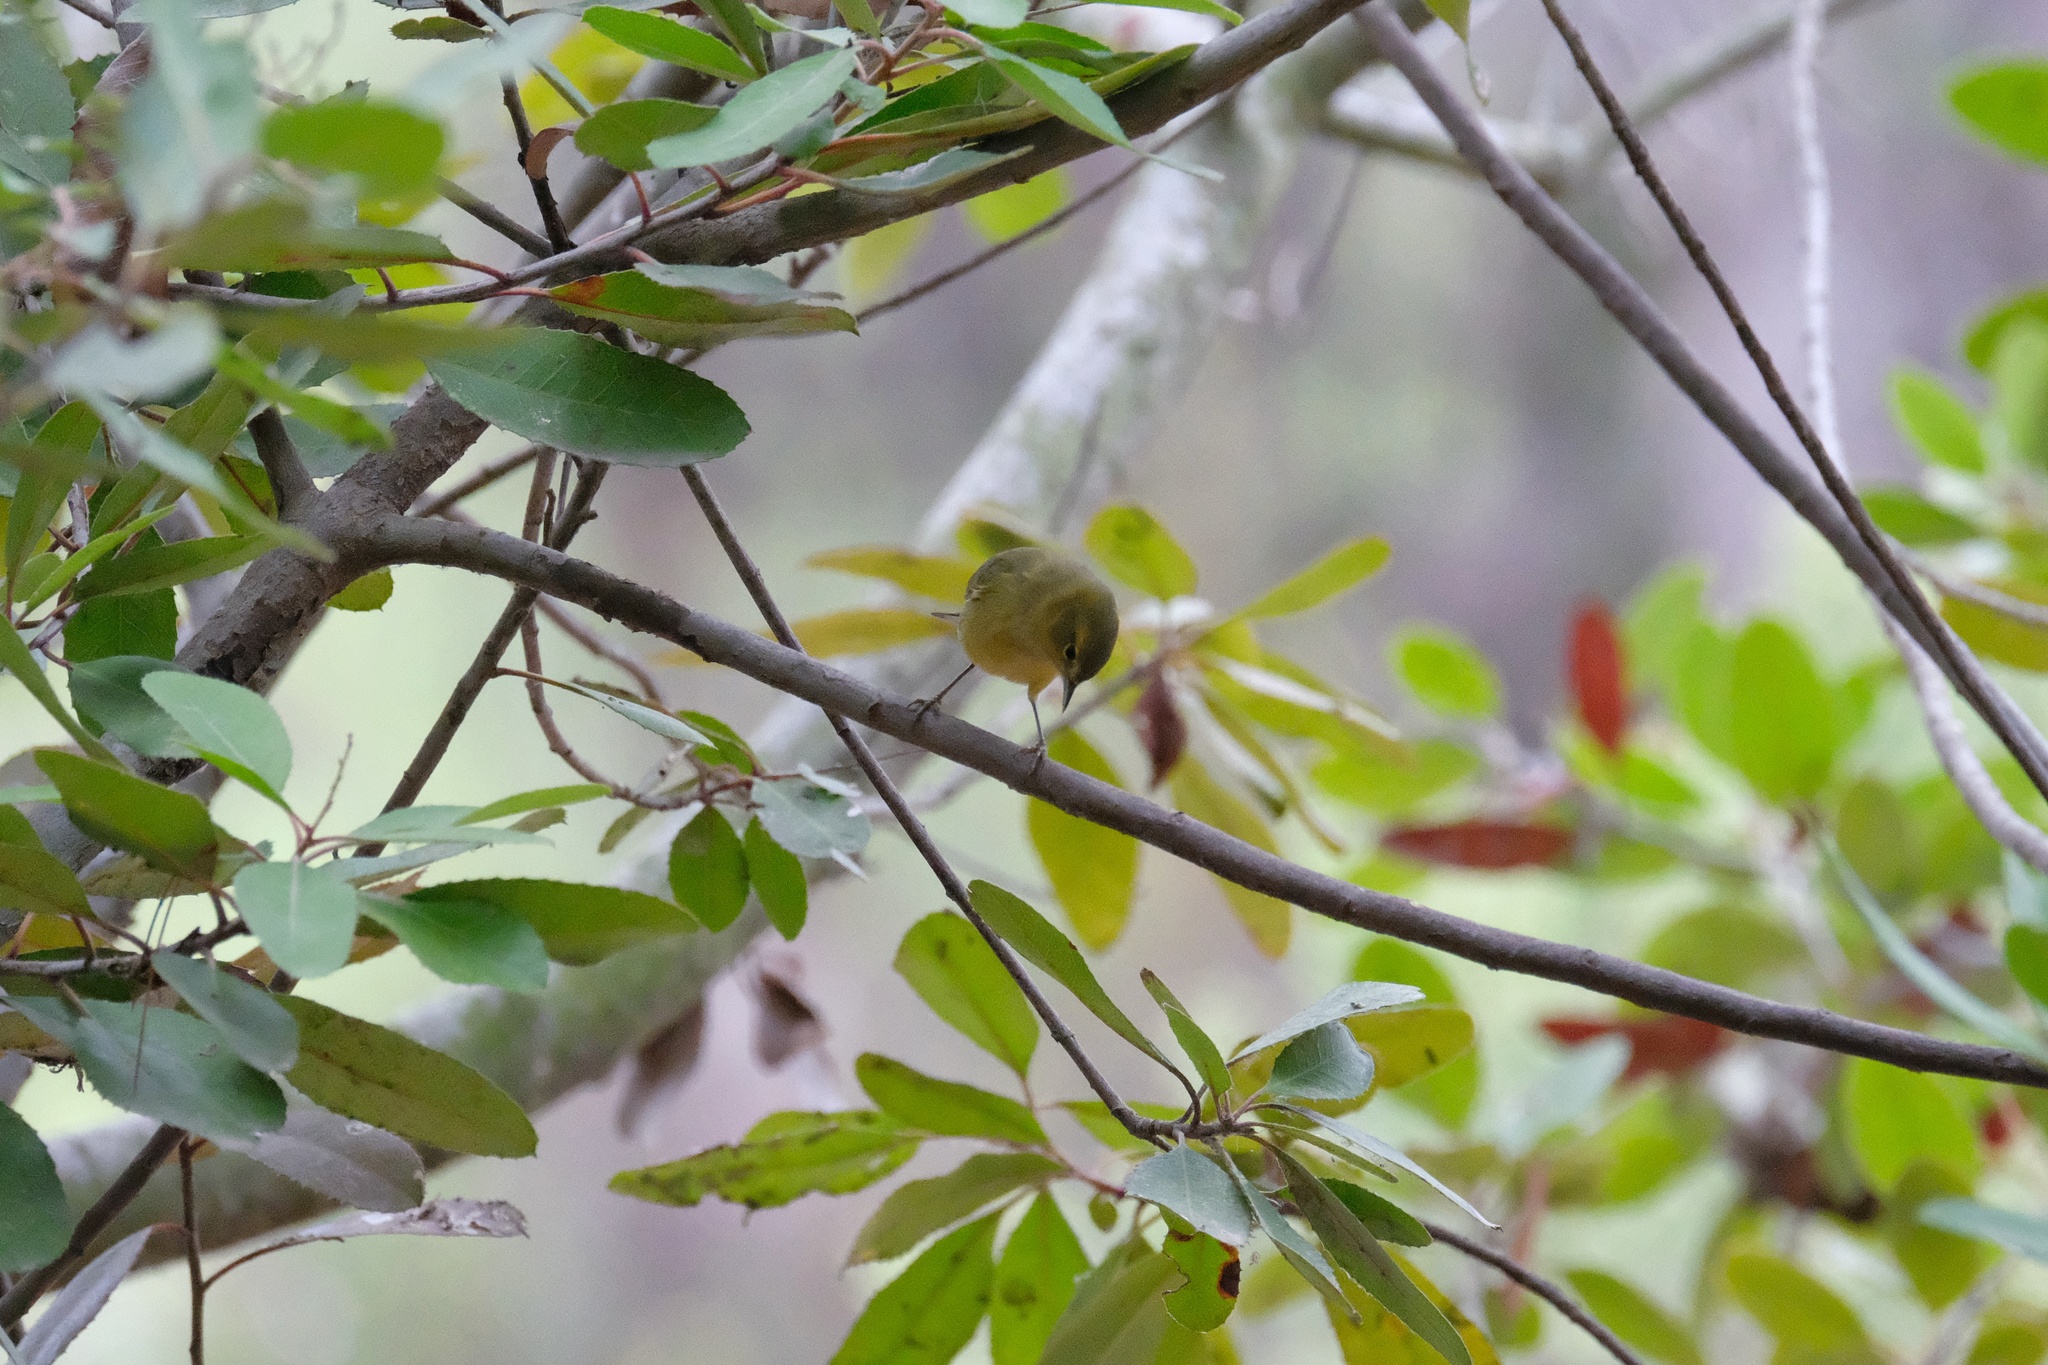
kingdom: Animalia
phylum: Chordata
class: Aves
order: Passeriformes
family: Parulidae
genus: Leiothlypis
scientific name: Leiothlypis celata
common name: Orange-crowned warbler
